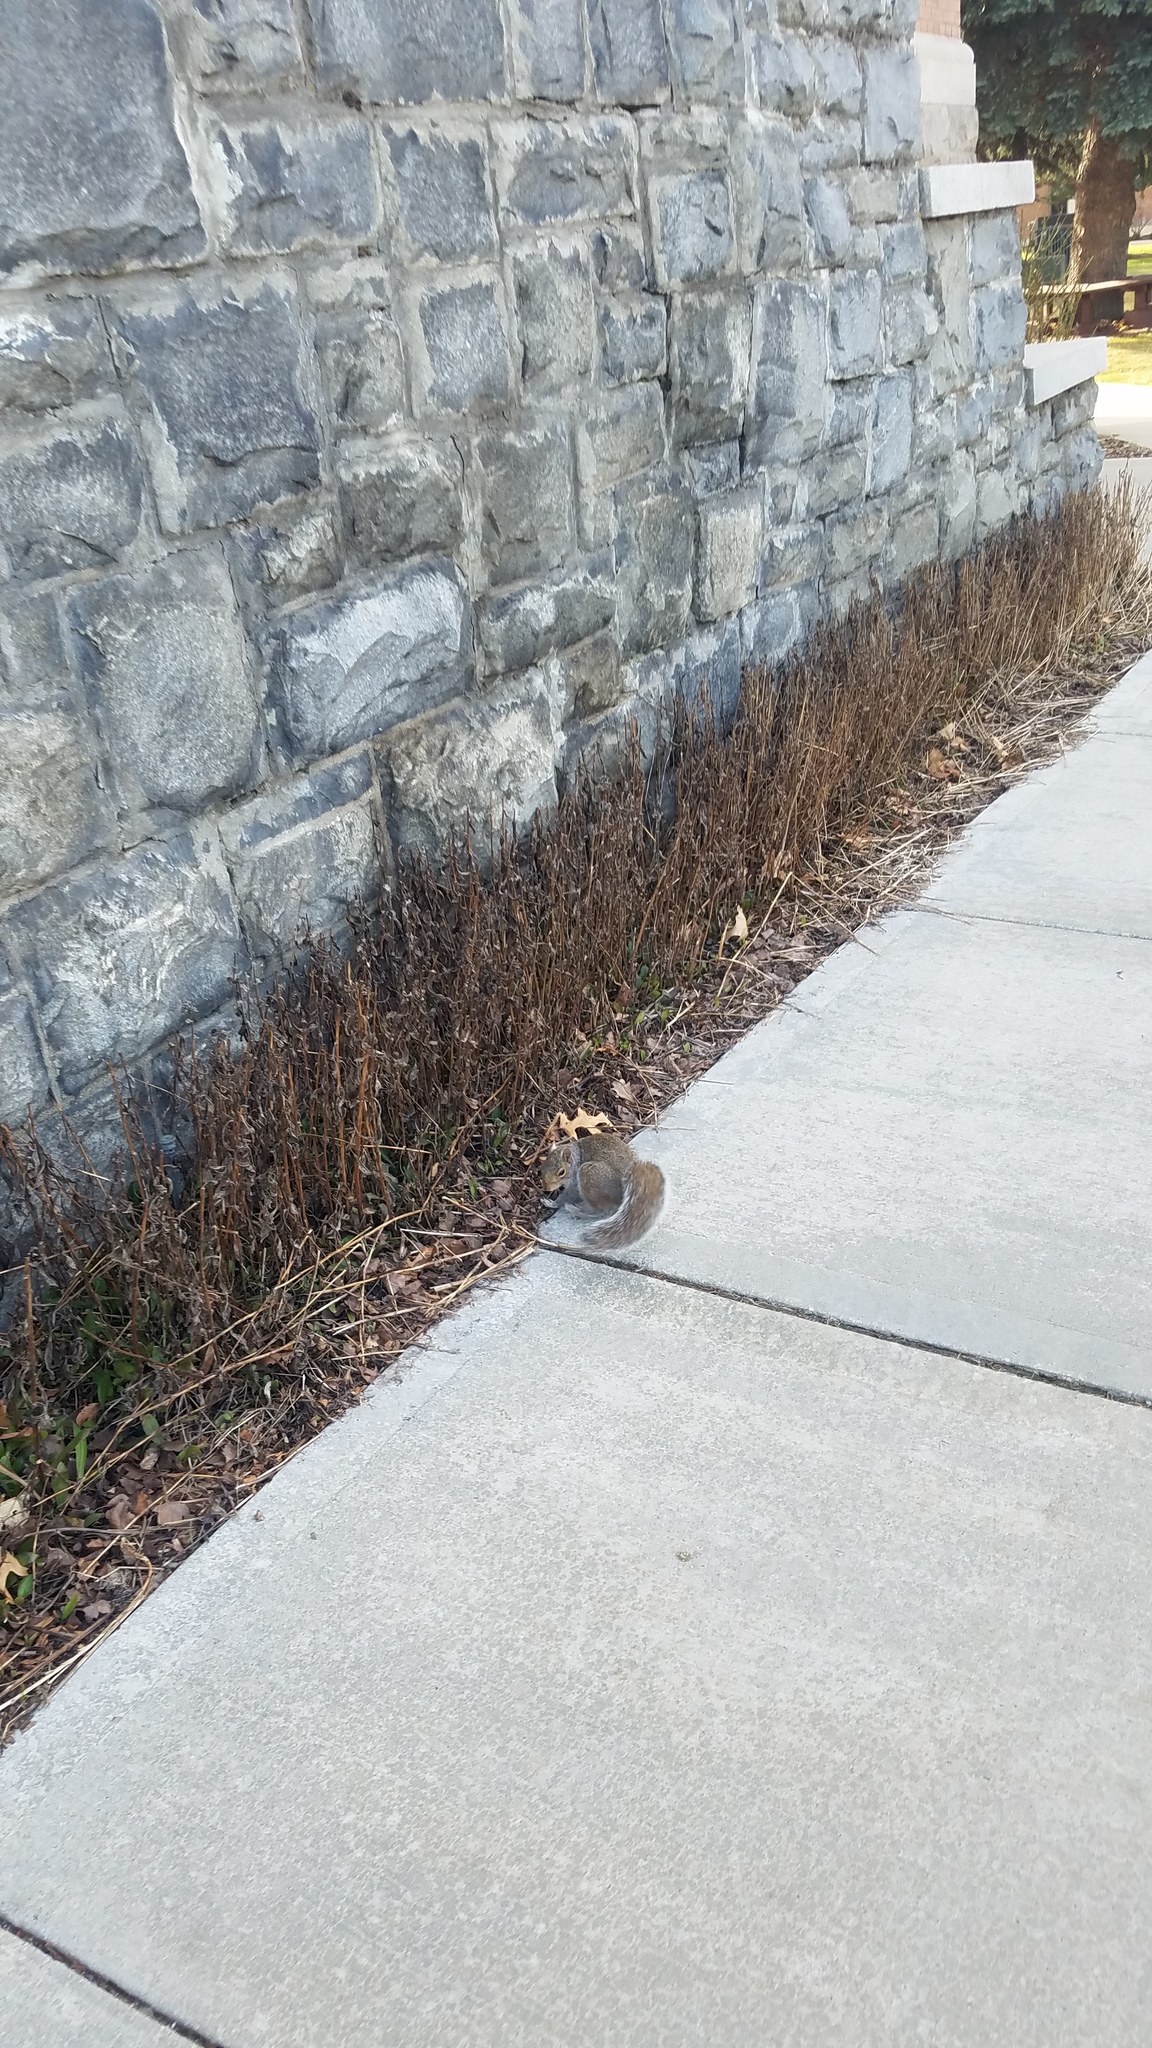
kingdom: Animalia
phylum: Chordata
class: Mammalia
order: Rodentia
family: Sciuridae
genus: Sciurus
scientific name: Sciurus carolinensis
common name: Eastern gray squirrel
